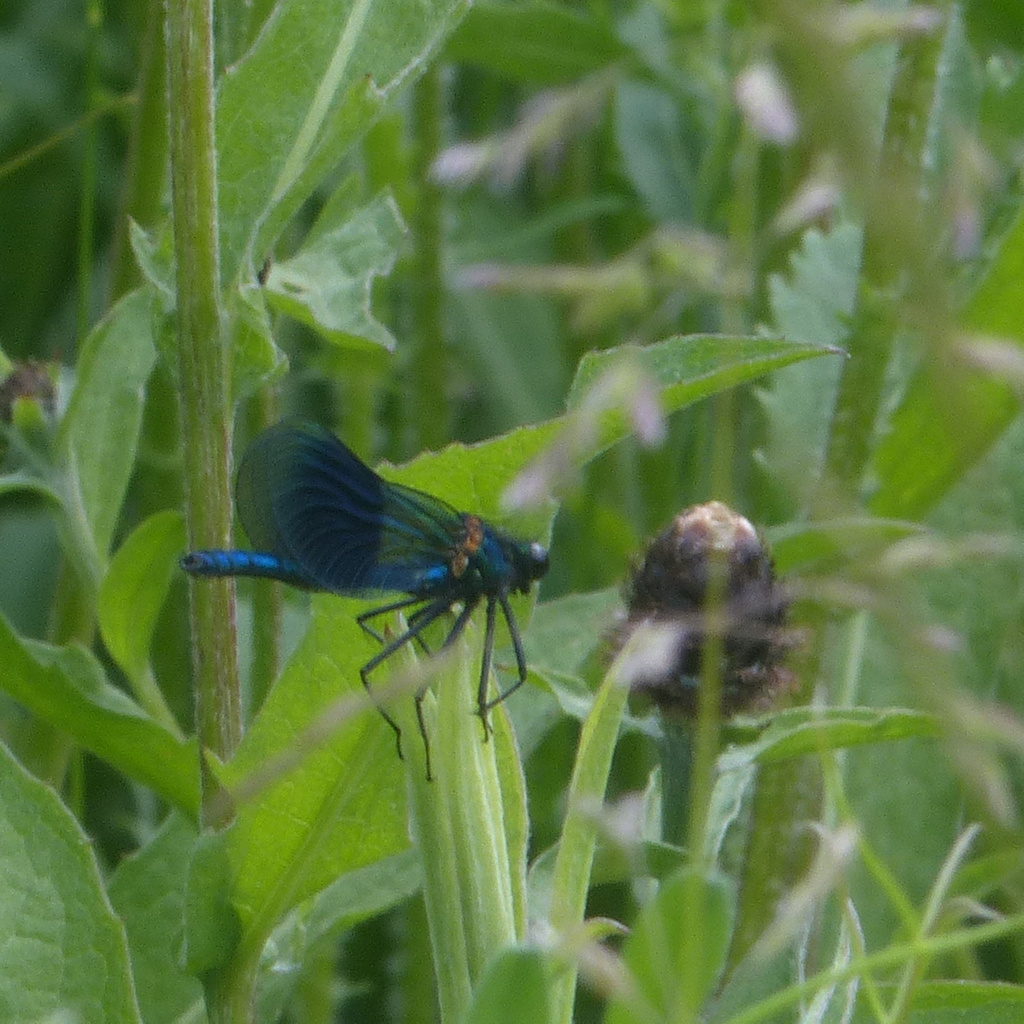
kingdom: Animalia
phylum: Arthropoda
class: Insecta
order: Odonata
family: Calopterygidae
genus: Calopteryx
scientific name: Calopteryx splendens
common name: Banded demoiselle
